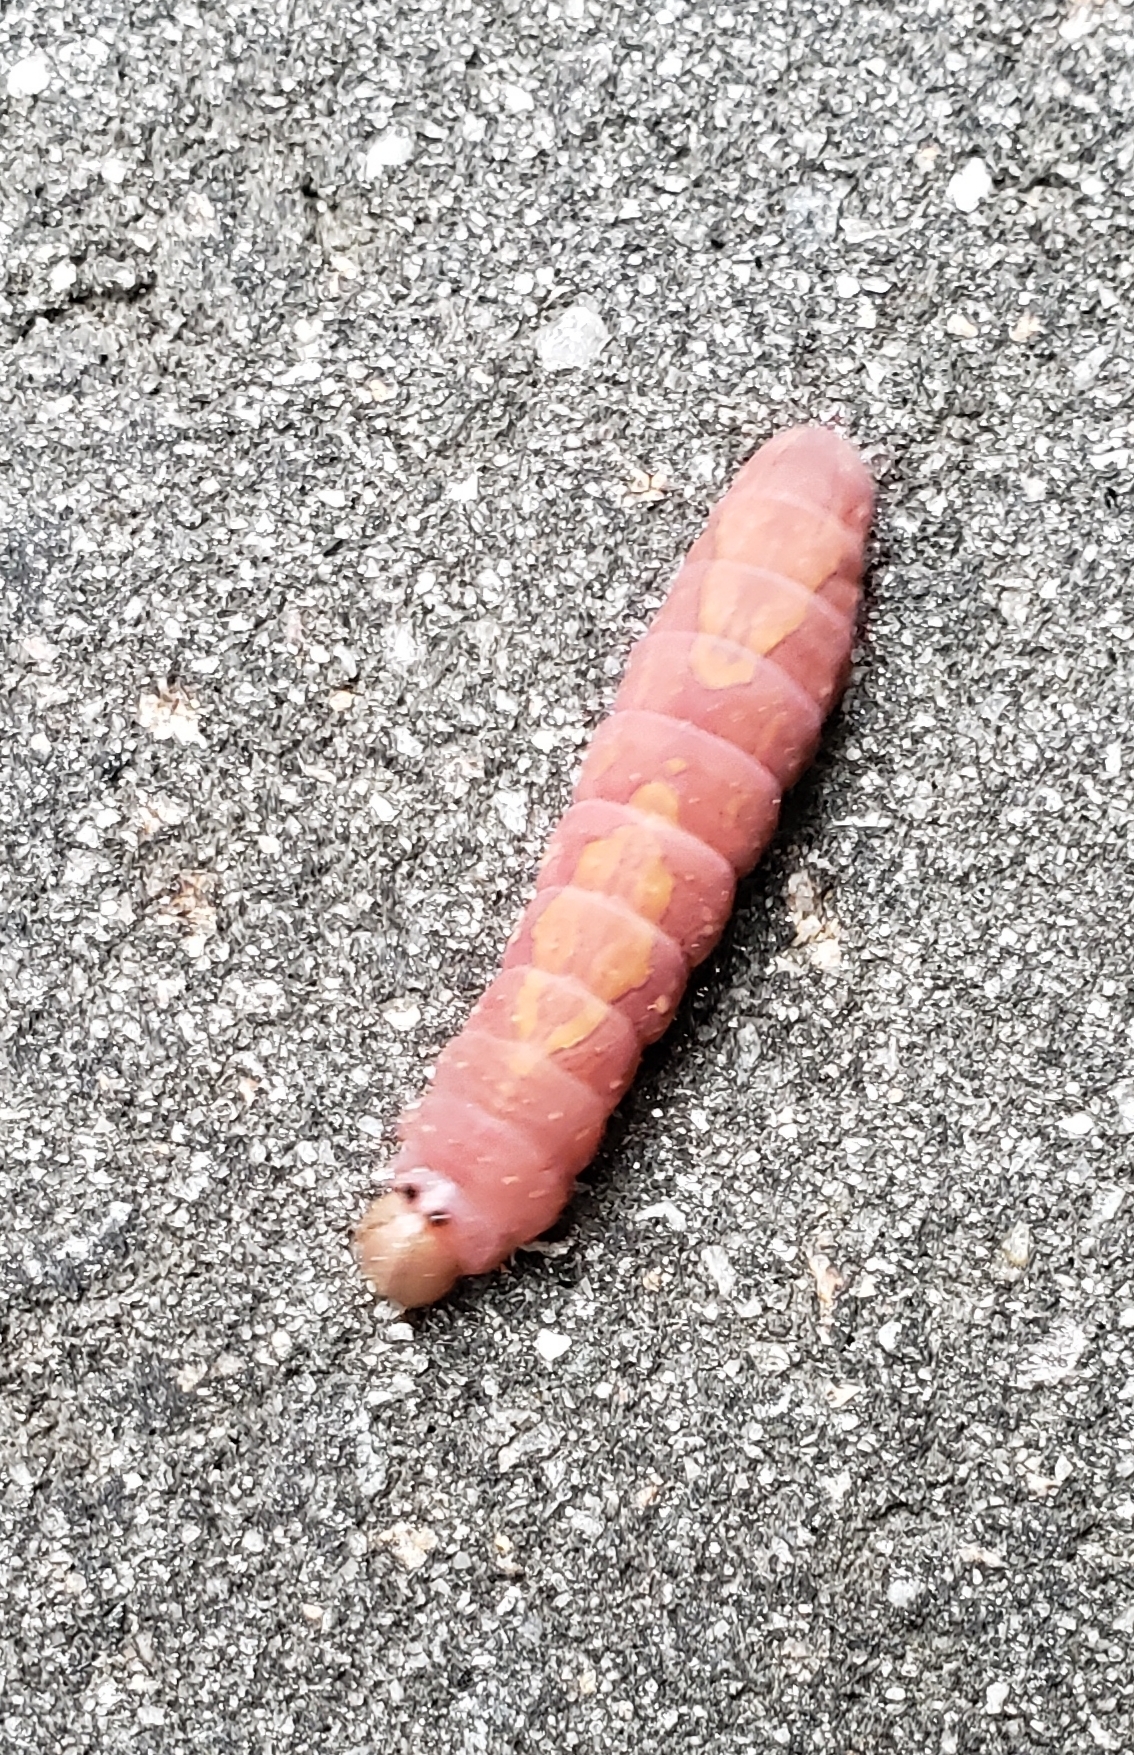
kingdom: Animalia
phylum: Arthropoda
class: Insecta
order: Lepidoptera
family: Notodontidae
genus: Heterocampa
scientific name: Heterocampa
